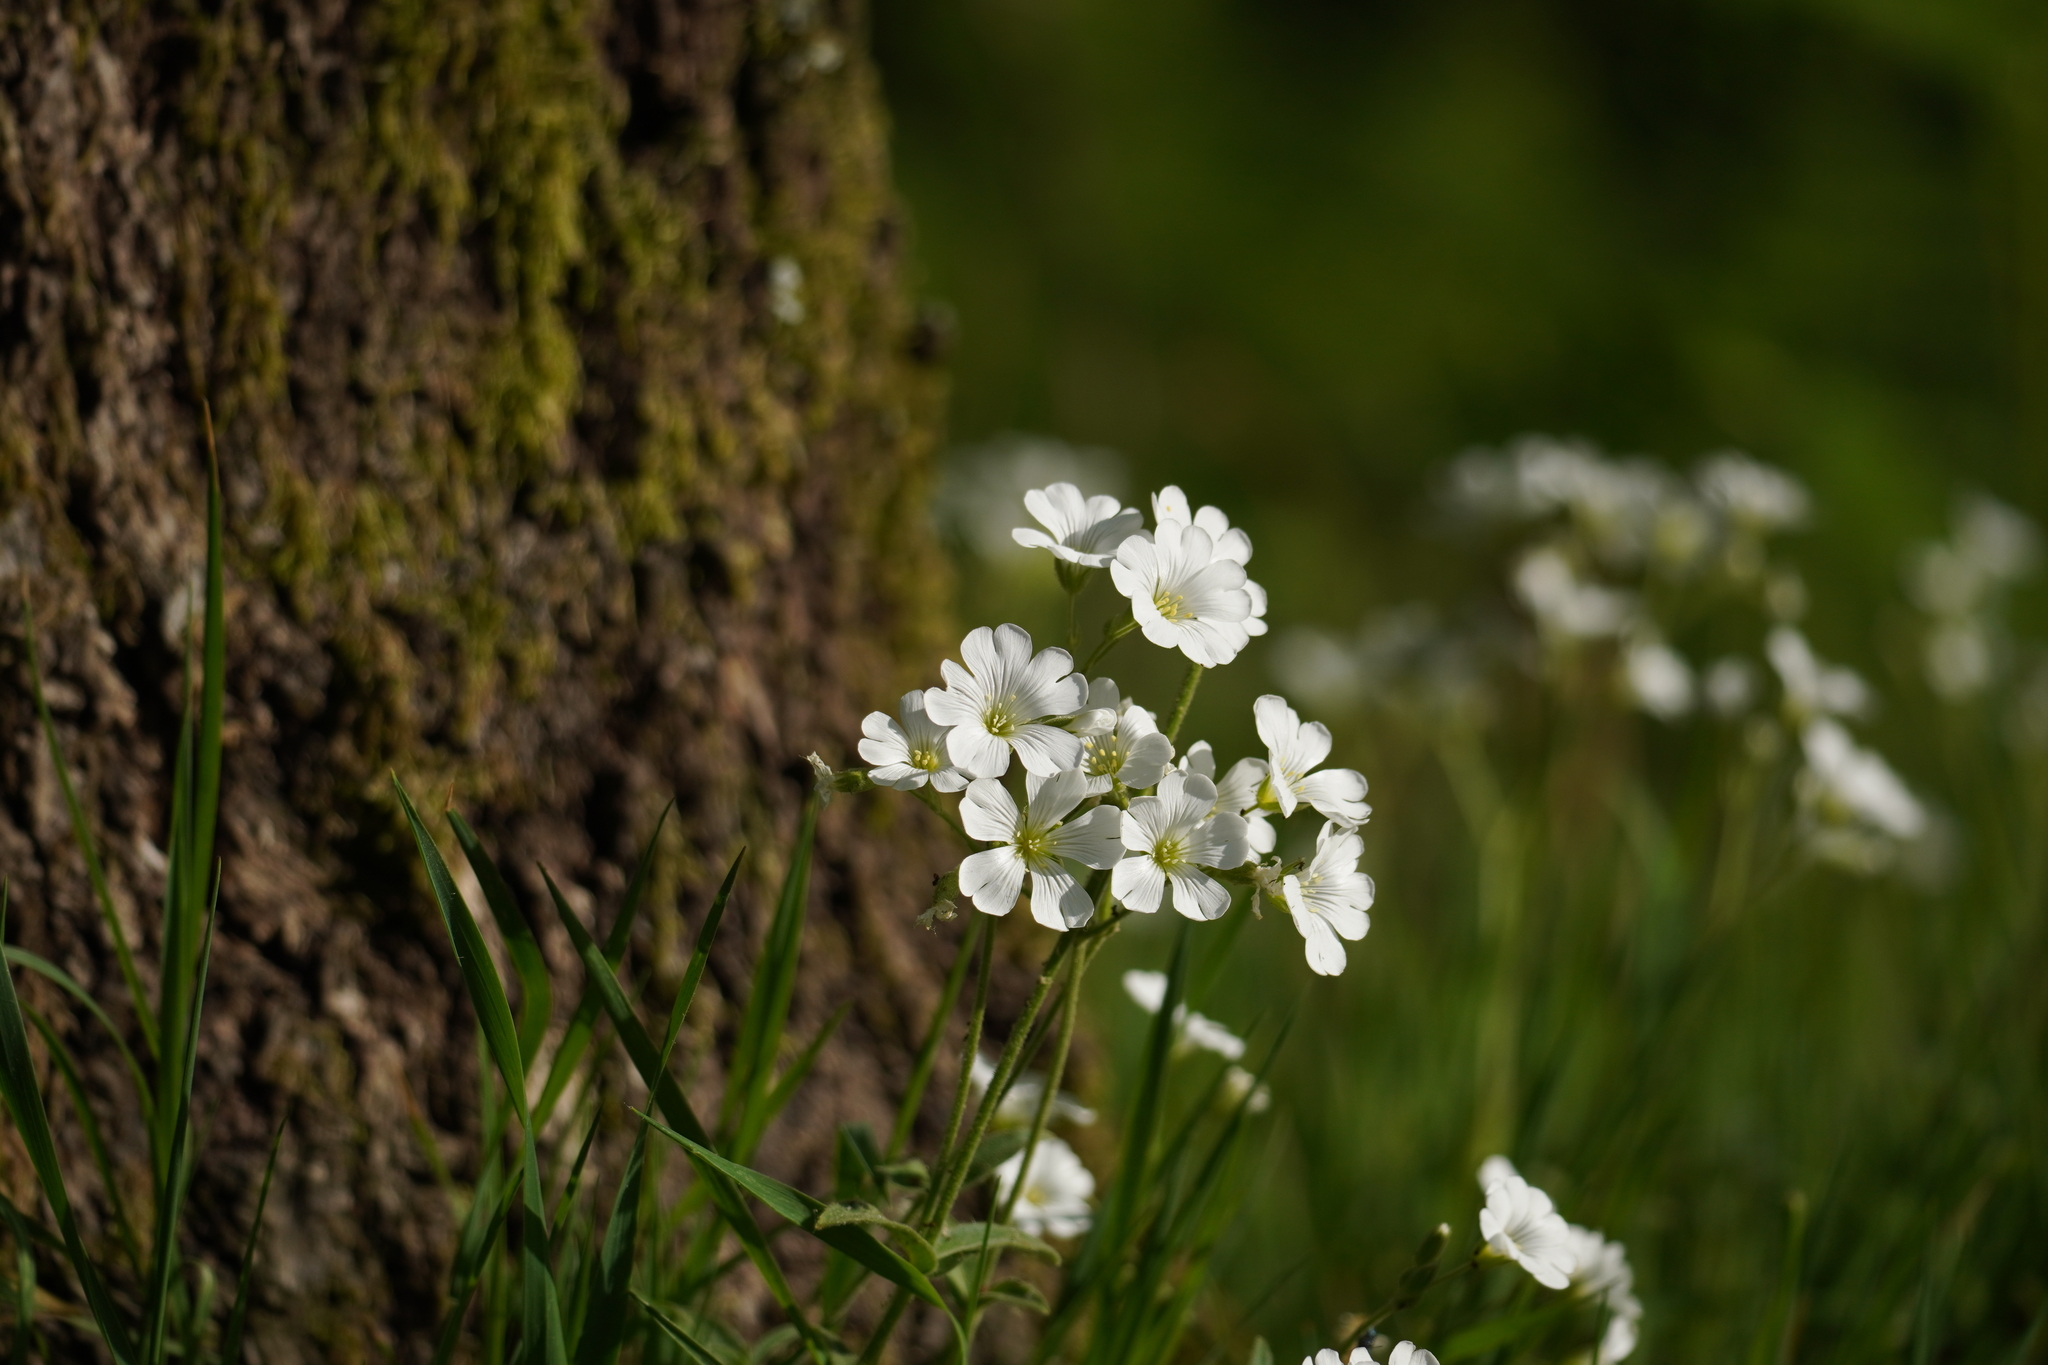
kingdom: Plantae
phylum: Tracheophyta
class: Magnoliopsida
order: Caryophyllales
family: Caryophyllaceae
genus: Cerastium
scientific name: Cerastium arvense
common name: Field mouse-ear
